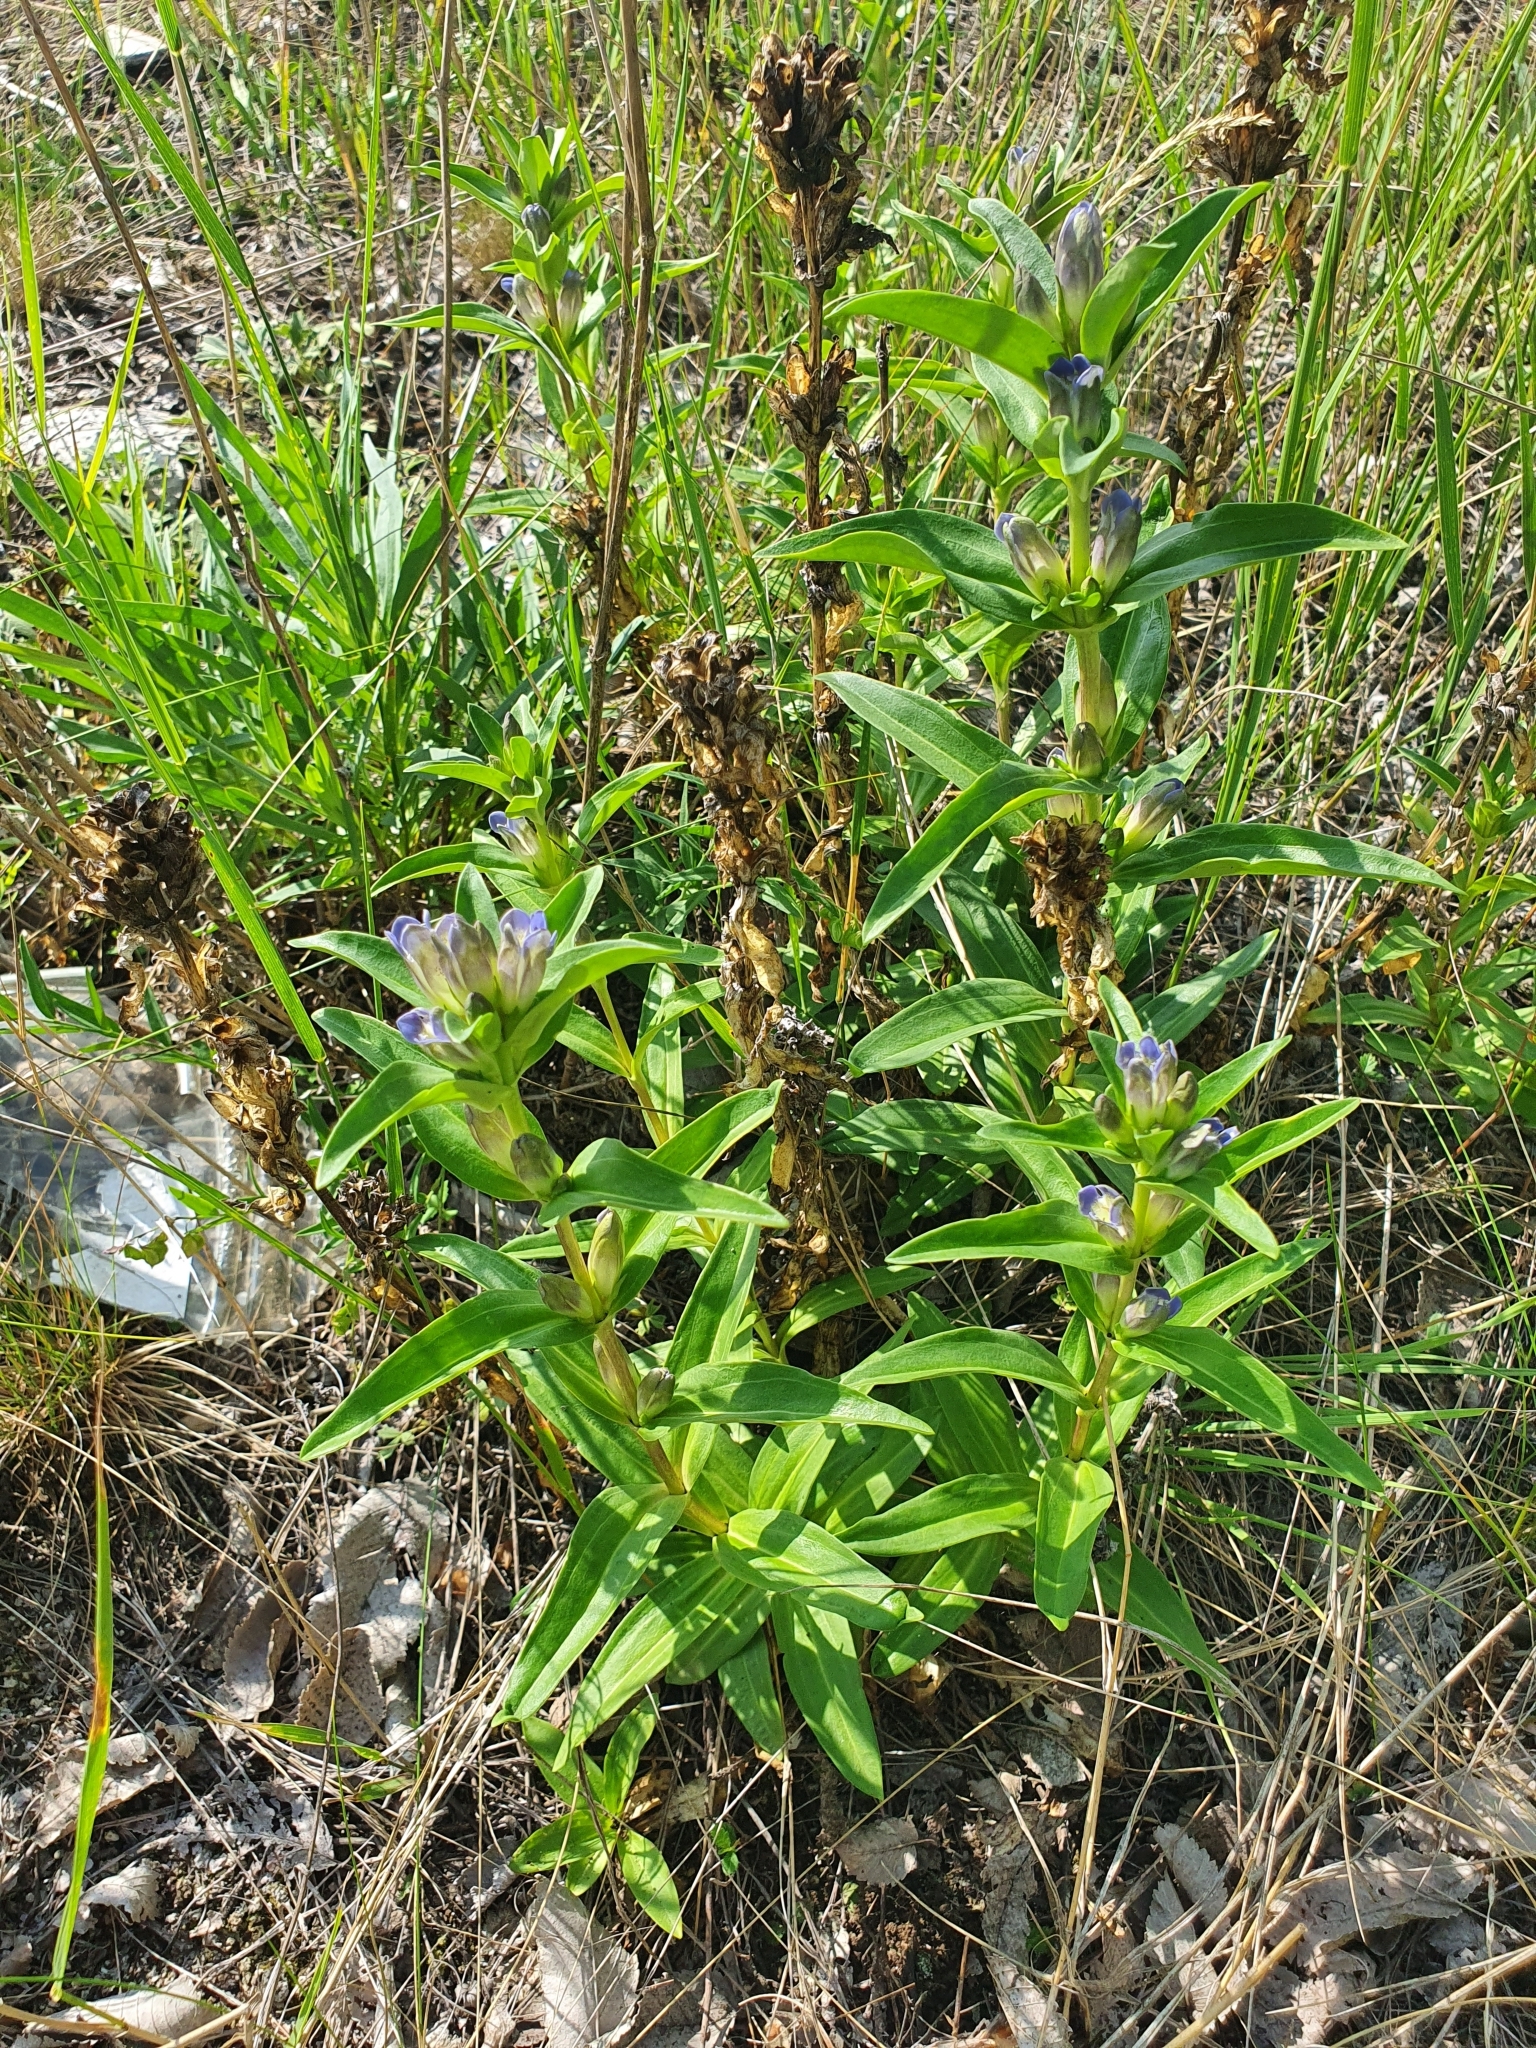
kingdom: Plantae
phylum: Tracheophyta
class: Magnoliopsida
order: Gentianales
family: Gentianaceae
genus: Gentiana
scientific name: Gentiana cruciata
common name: Cross gentian
